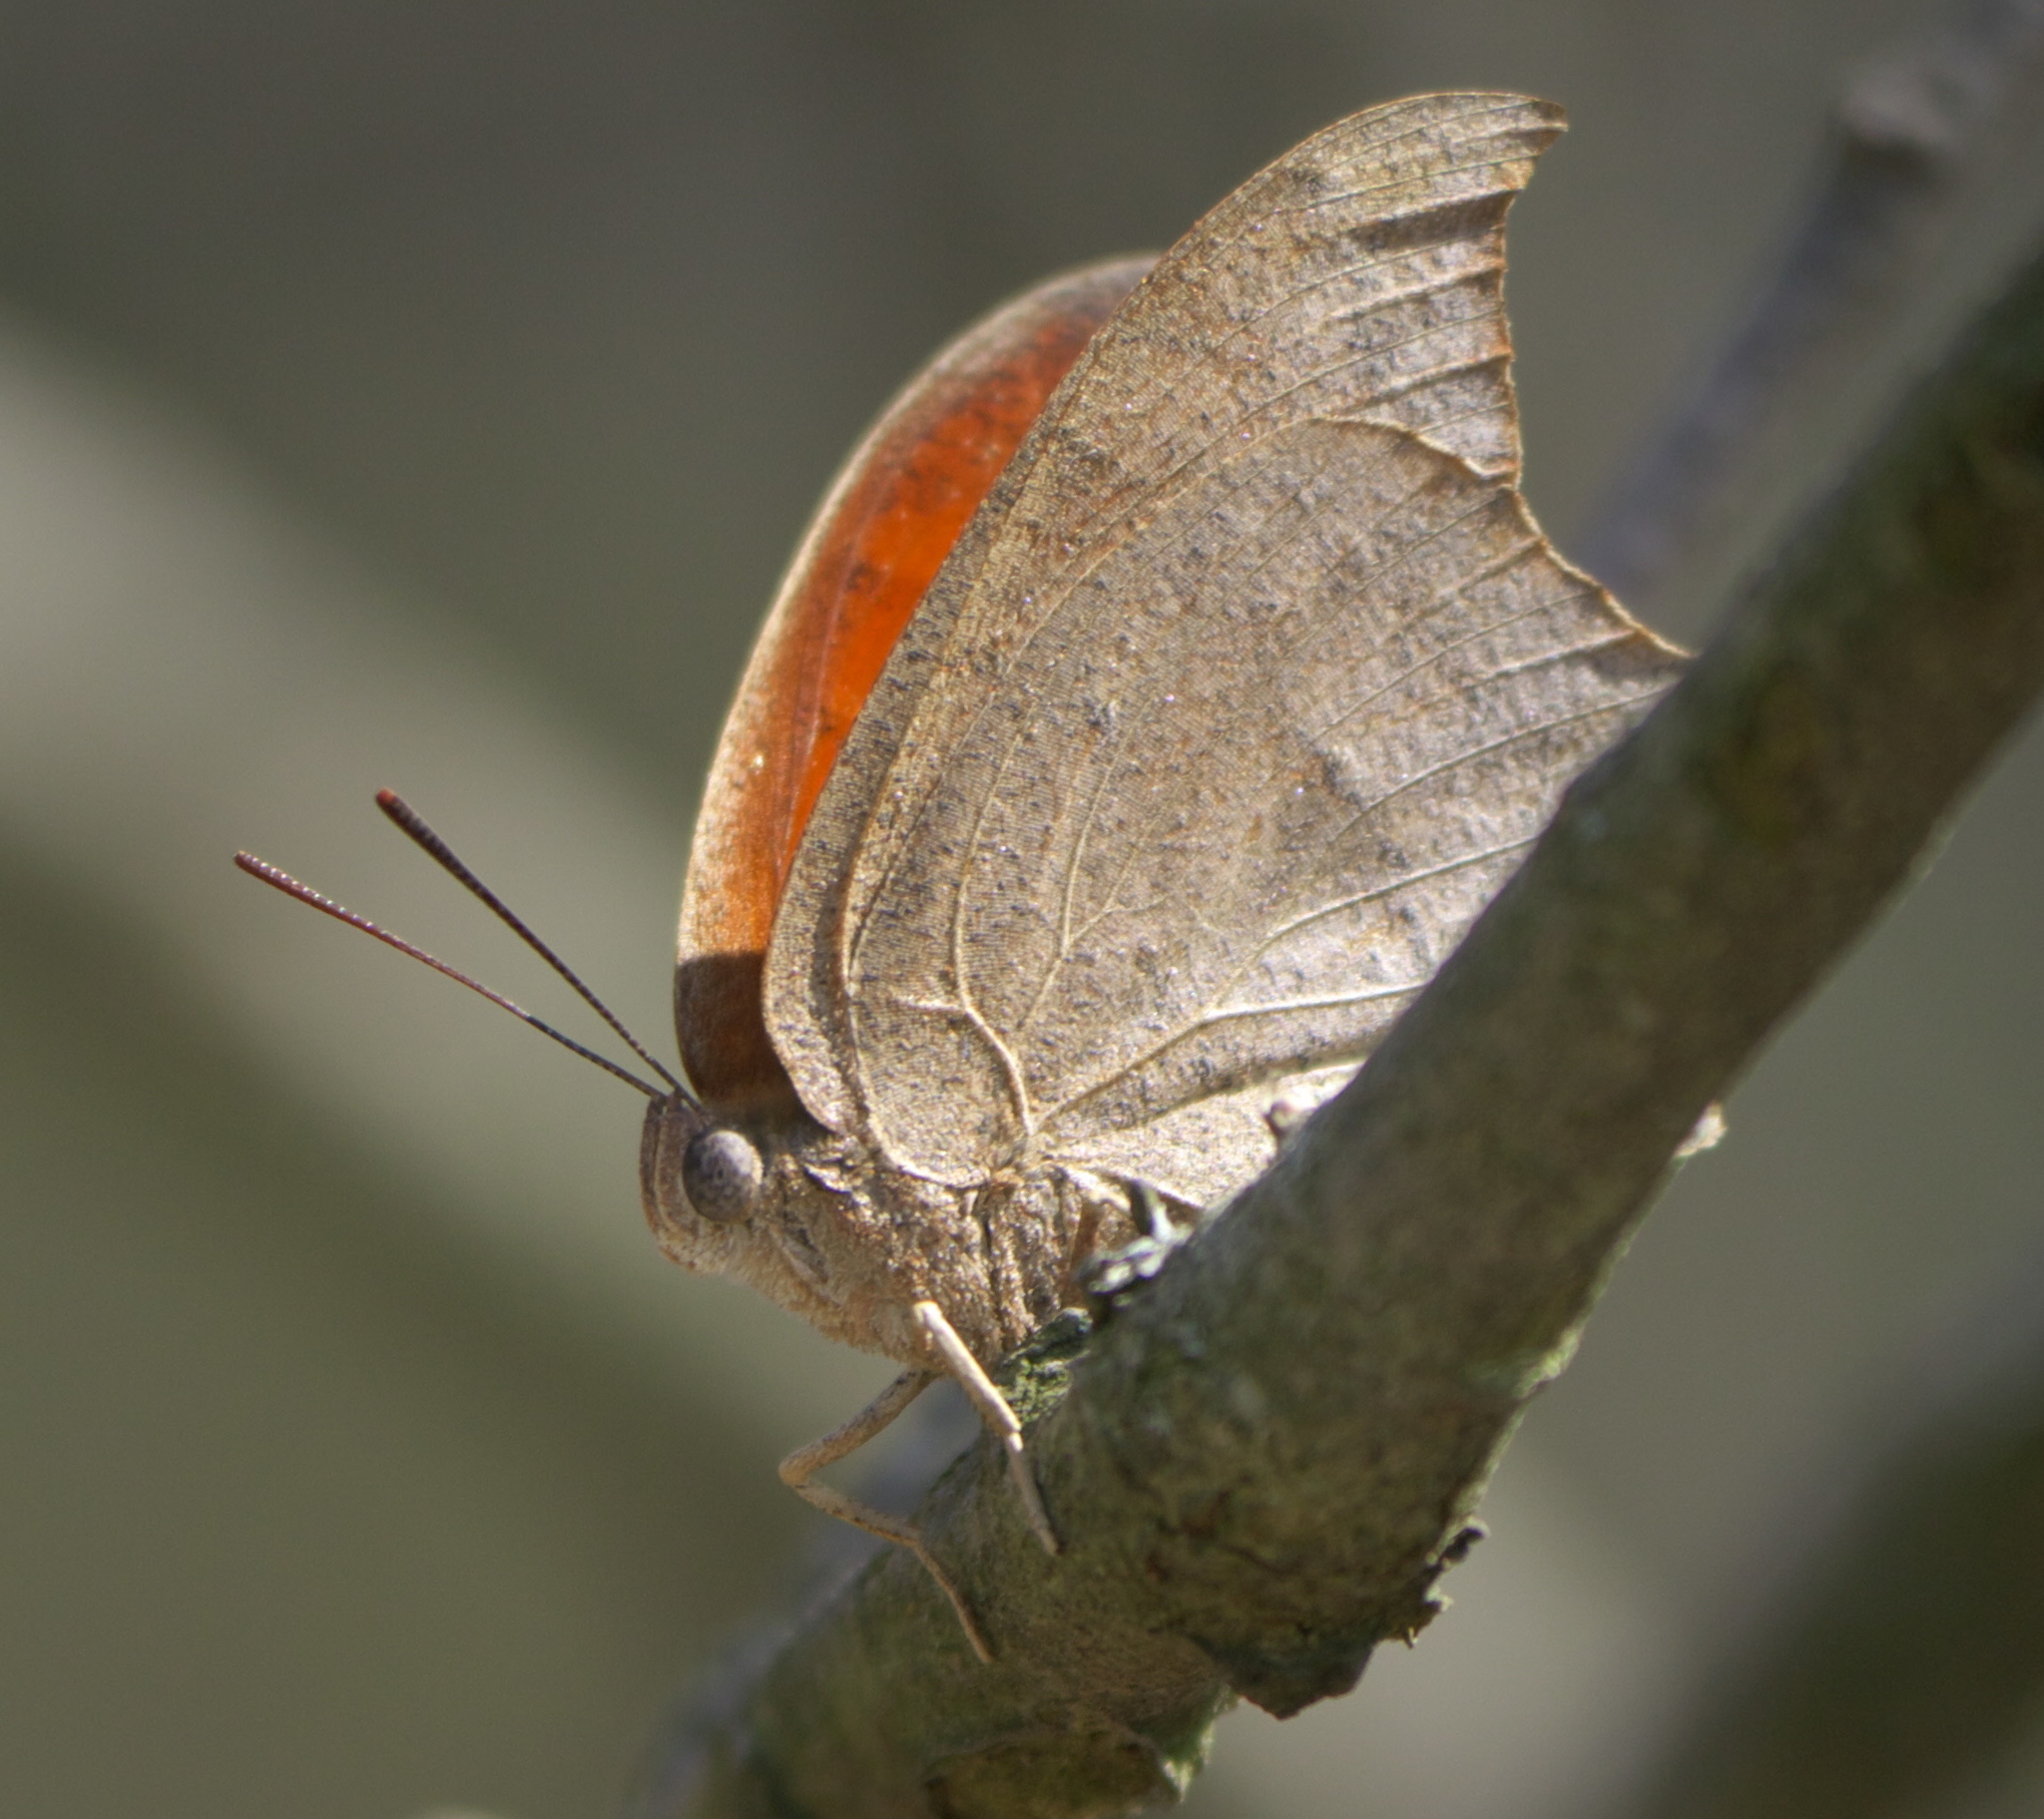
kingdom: Animalia
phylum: Arthropoda
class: Insecta
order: Lepidoptera
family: Nymphalidae
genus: Anaea
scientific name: Anaea andria
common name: Goatweed leafwing
